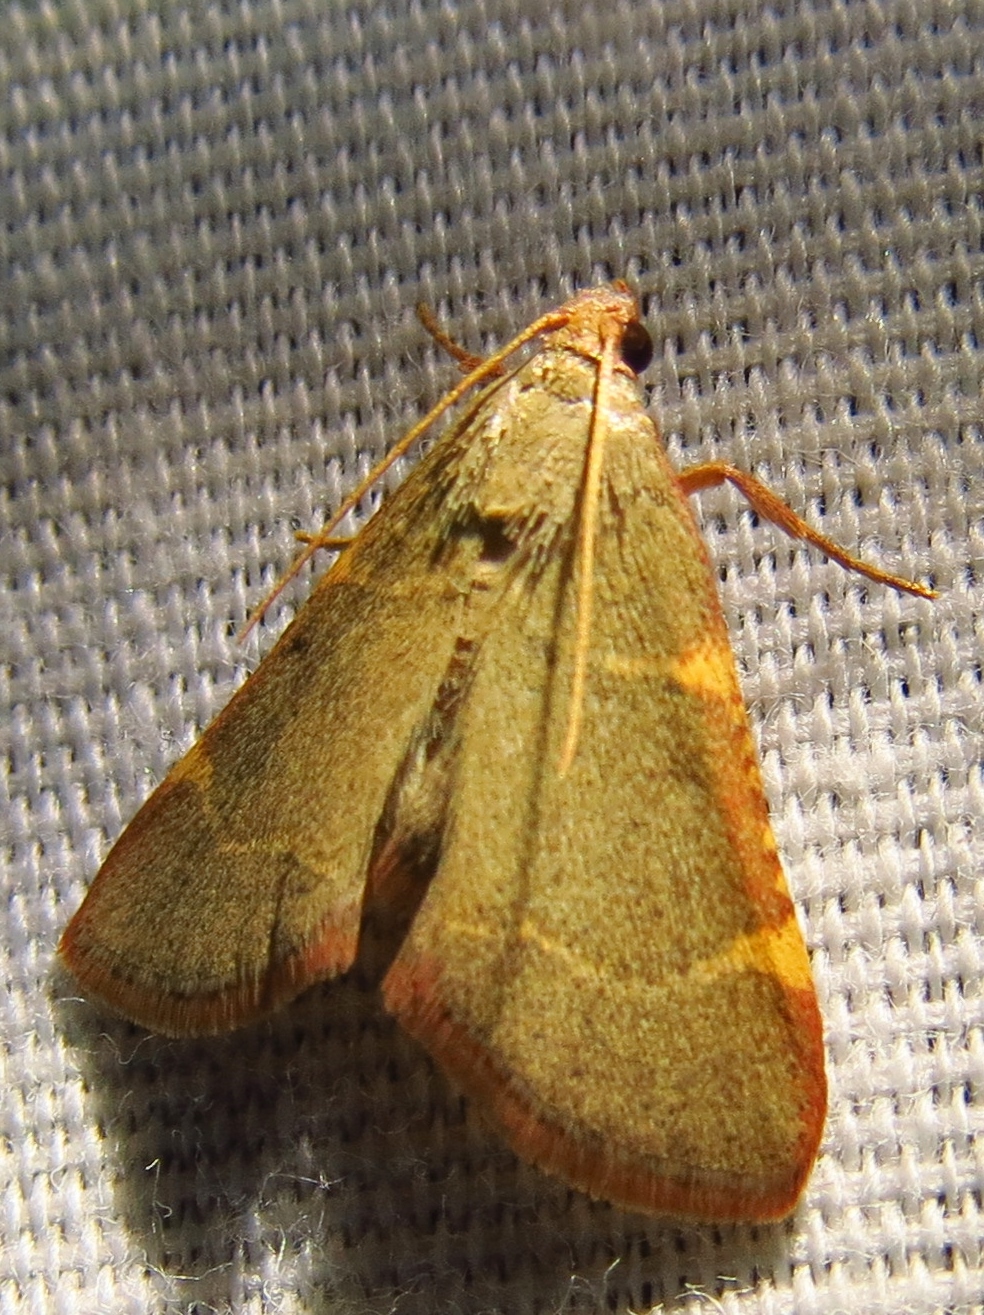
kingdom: Animalia
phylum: Arthropoda
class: Insecta
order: Lepidoptera
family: Pyralidae
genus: Hypsopygia
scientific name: Hypsopygia binodulalis
